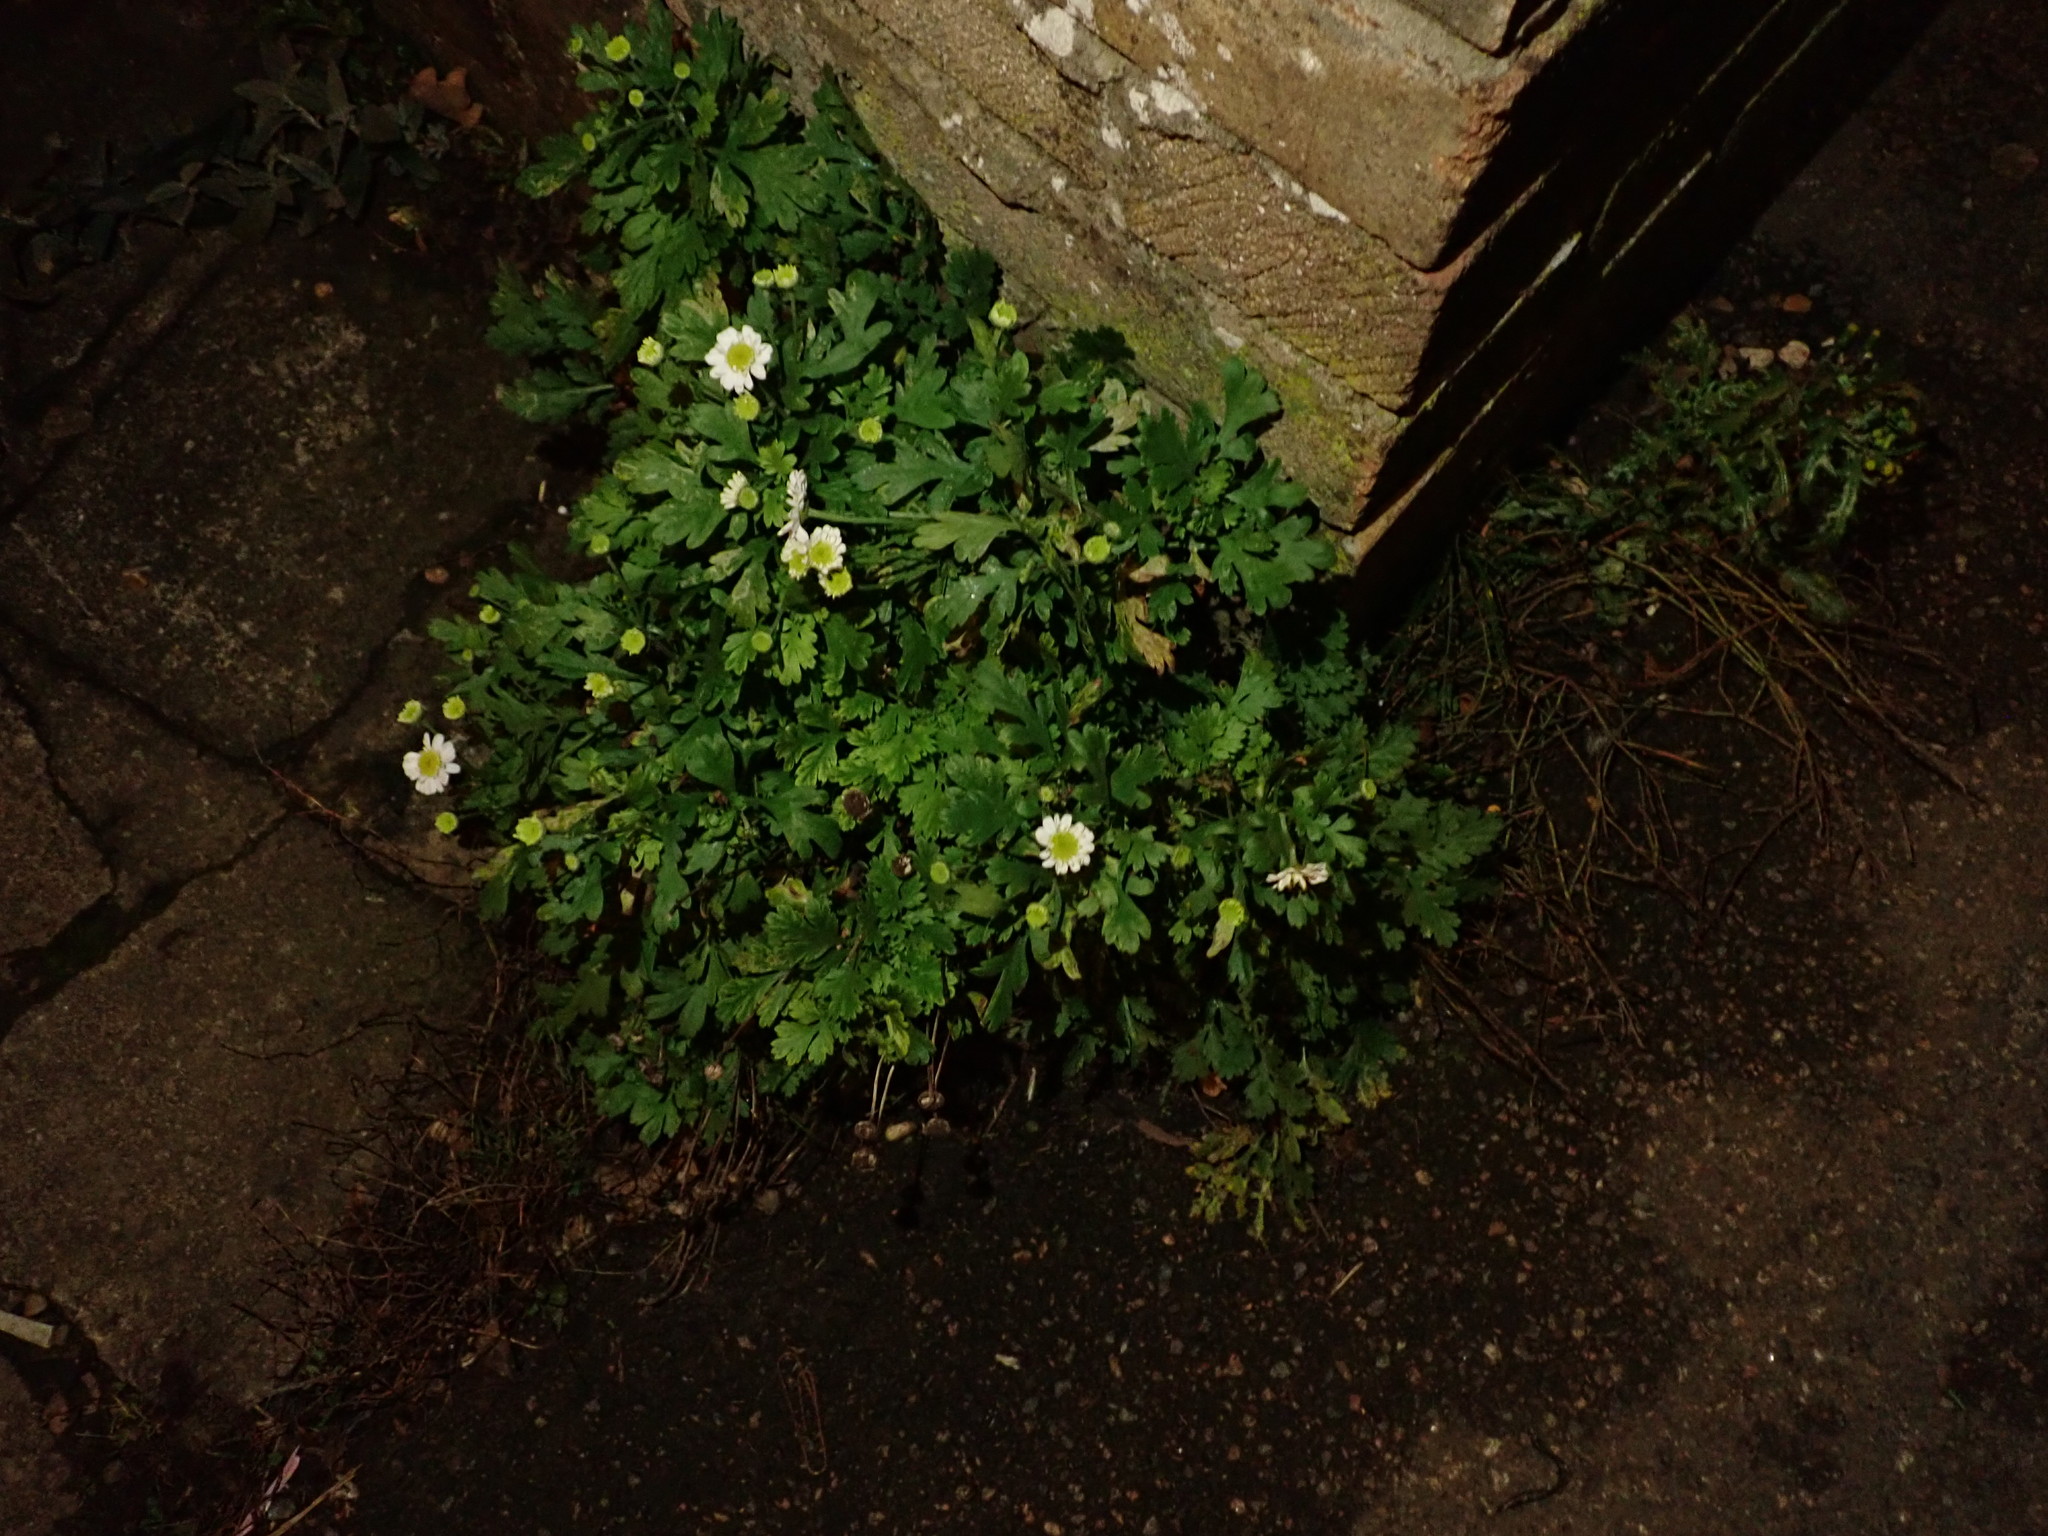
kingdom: Plantae
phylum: Tracheophyta
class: Magnoliopsida
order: Asterales
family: Asteraceae
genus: Tanacetum
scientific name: Tanacetum parthenium
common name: Feverfew
